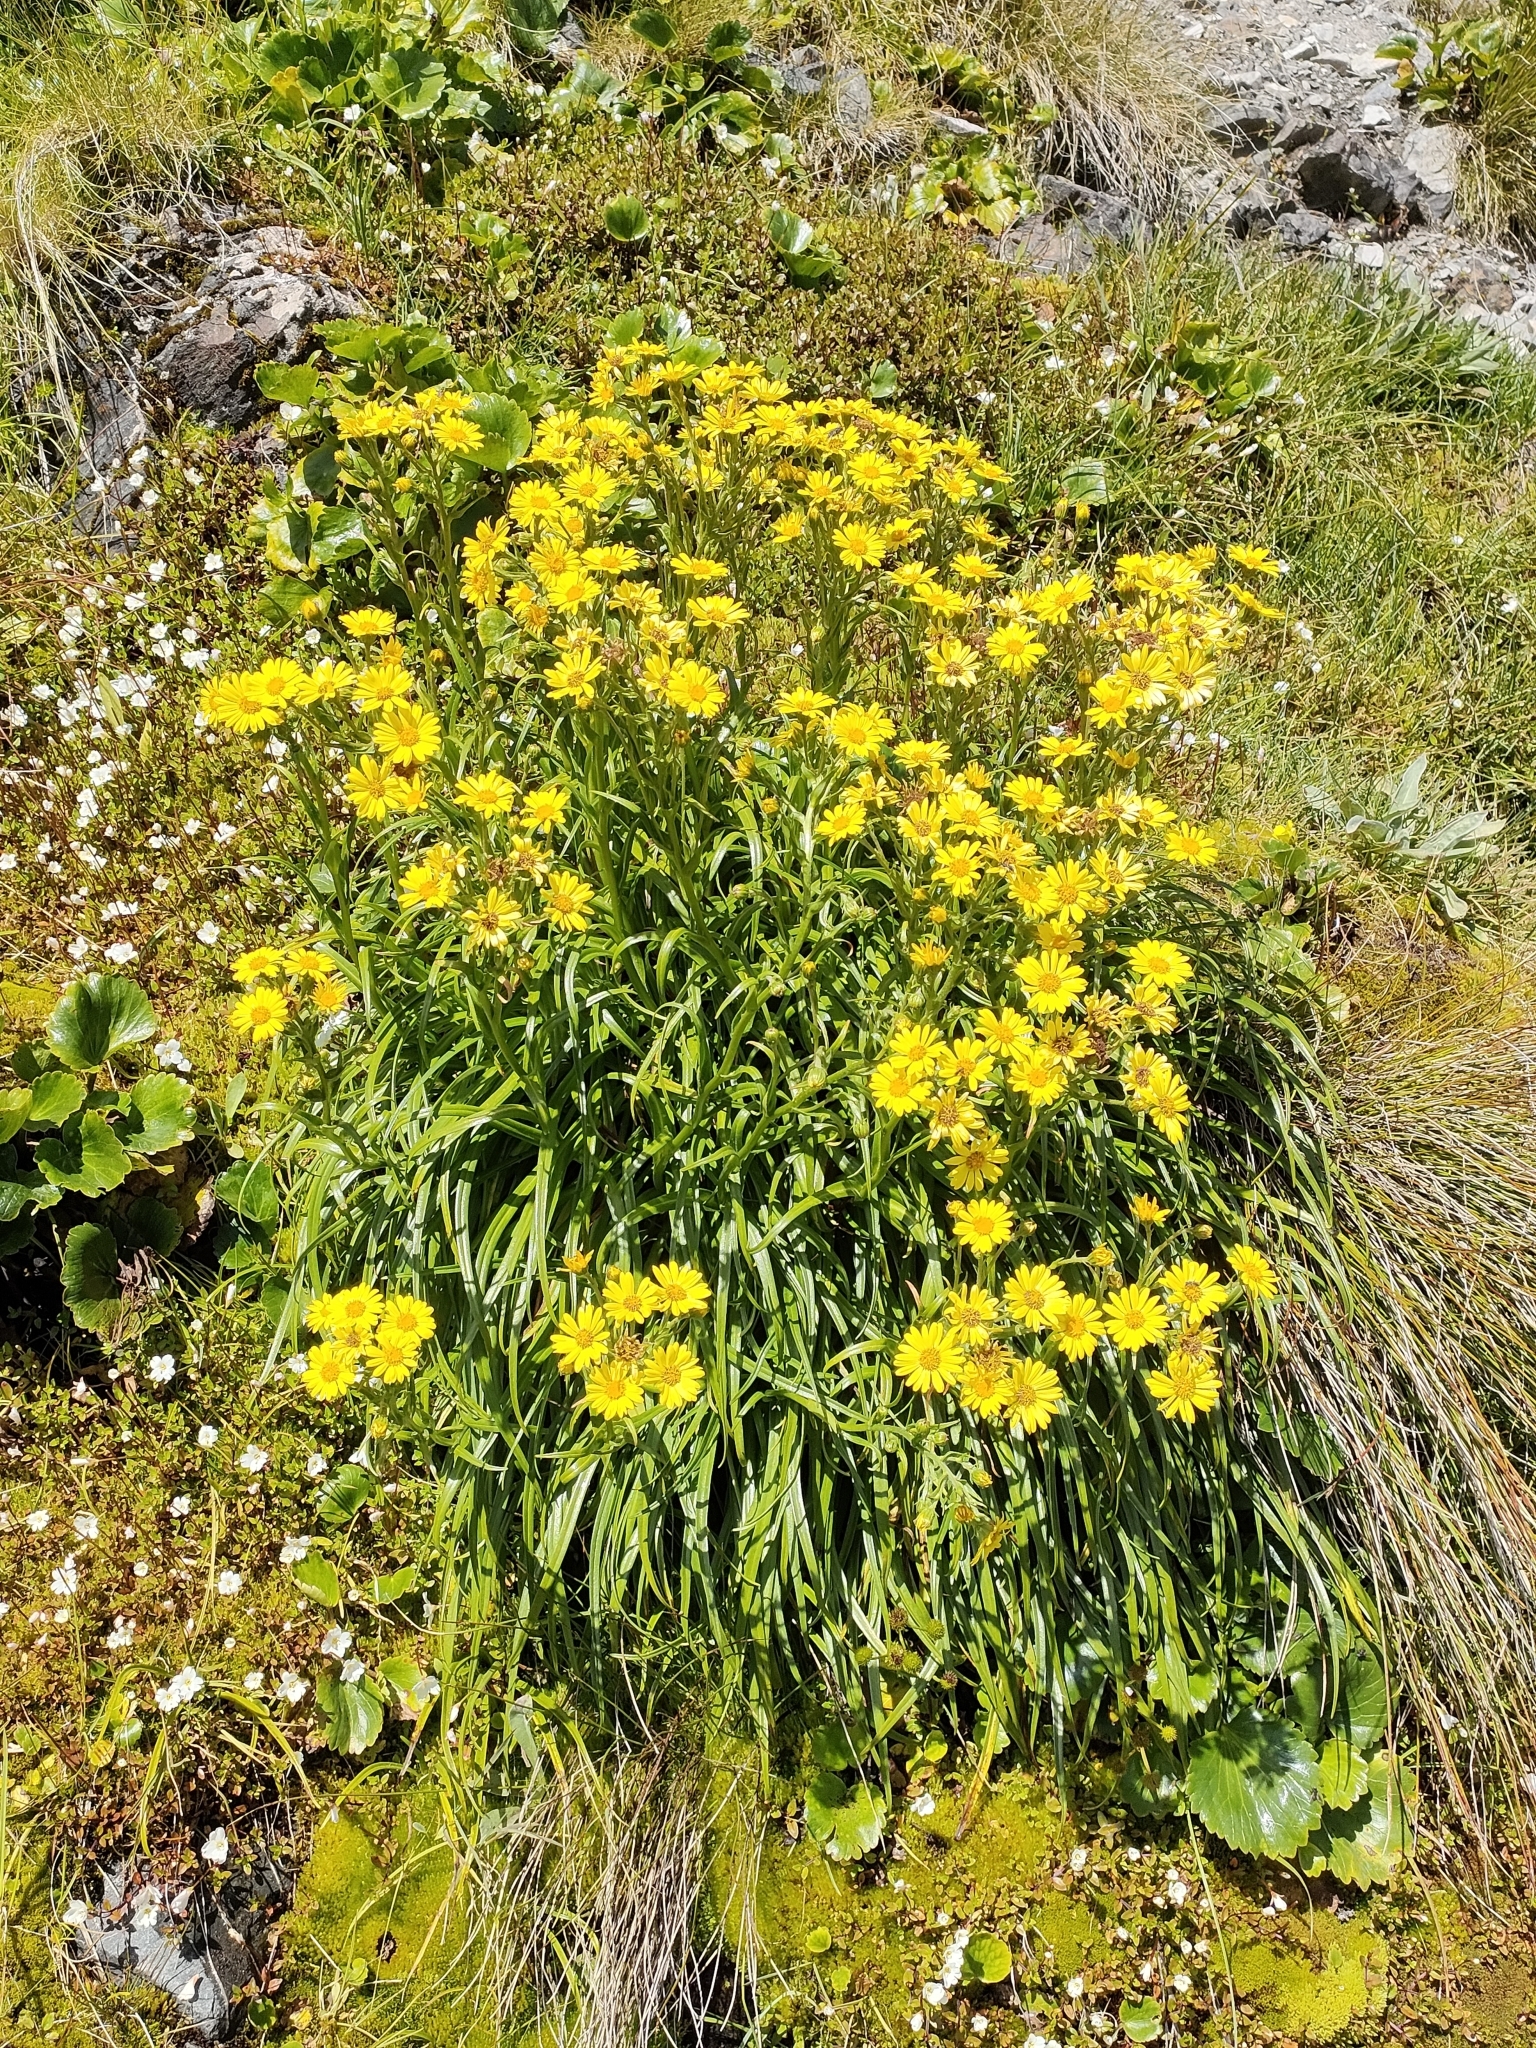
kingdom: Plantae
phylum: Tracheophyta
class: Magnoliopsida
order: Asterales
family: Asteraceae
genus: Dolichoglottis
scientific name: Dolichoglottis lyallii
